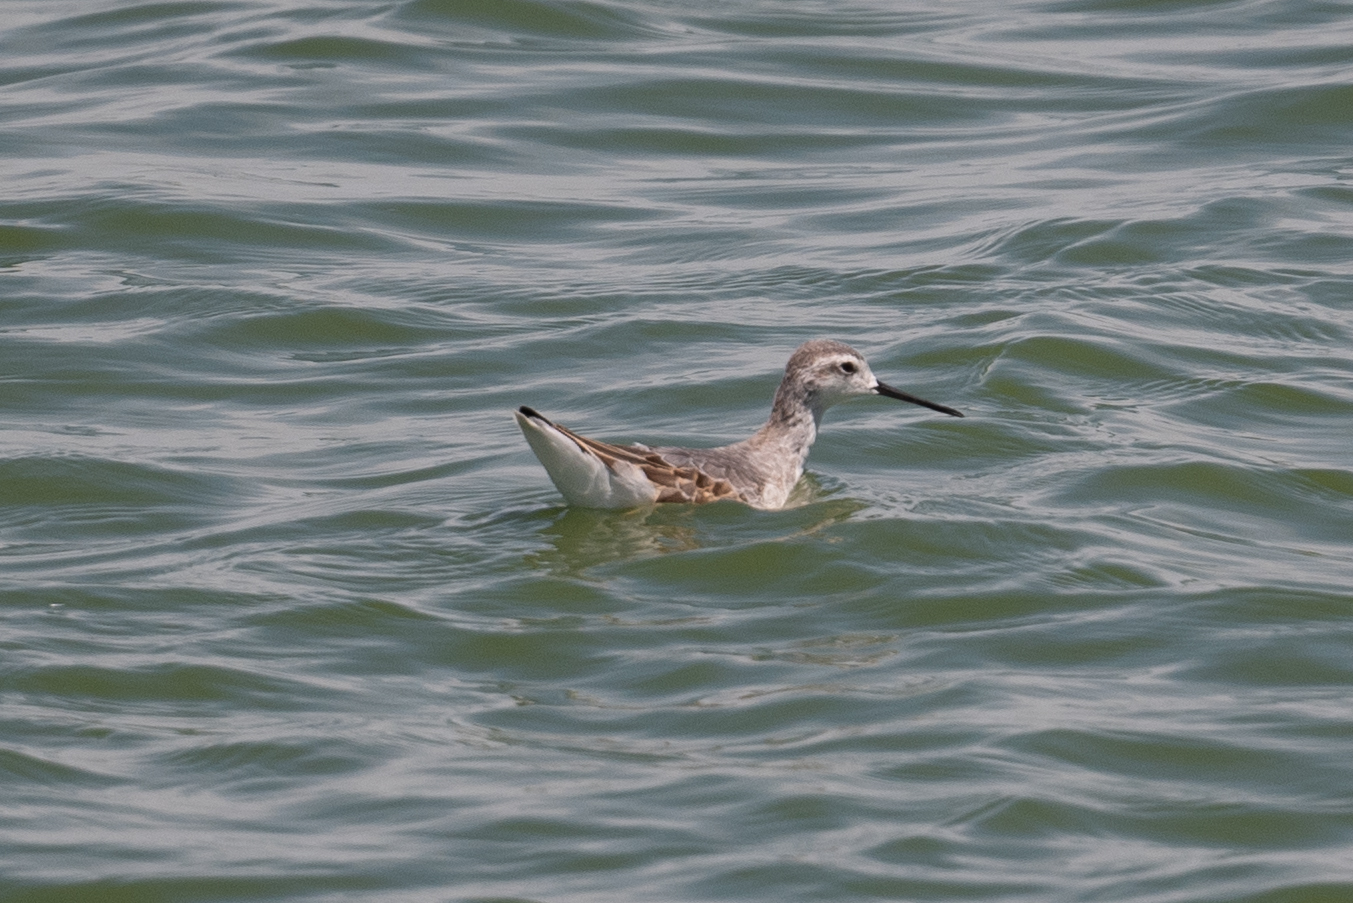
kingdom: Animalia
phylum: Chordata
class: Aves
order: Charadriiformes
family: Scolopacidae
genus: Phalaropus
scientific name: Phalaropus tricolor
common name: Wilson's phalarope
